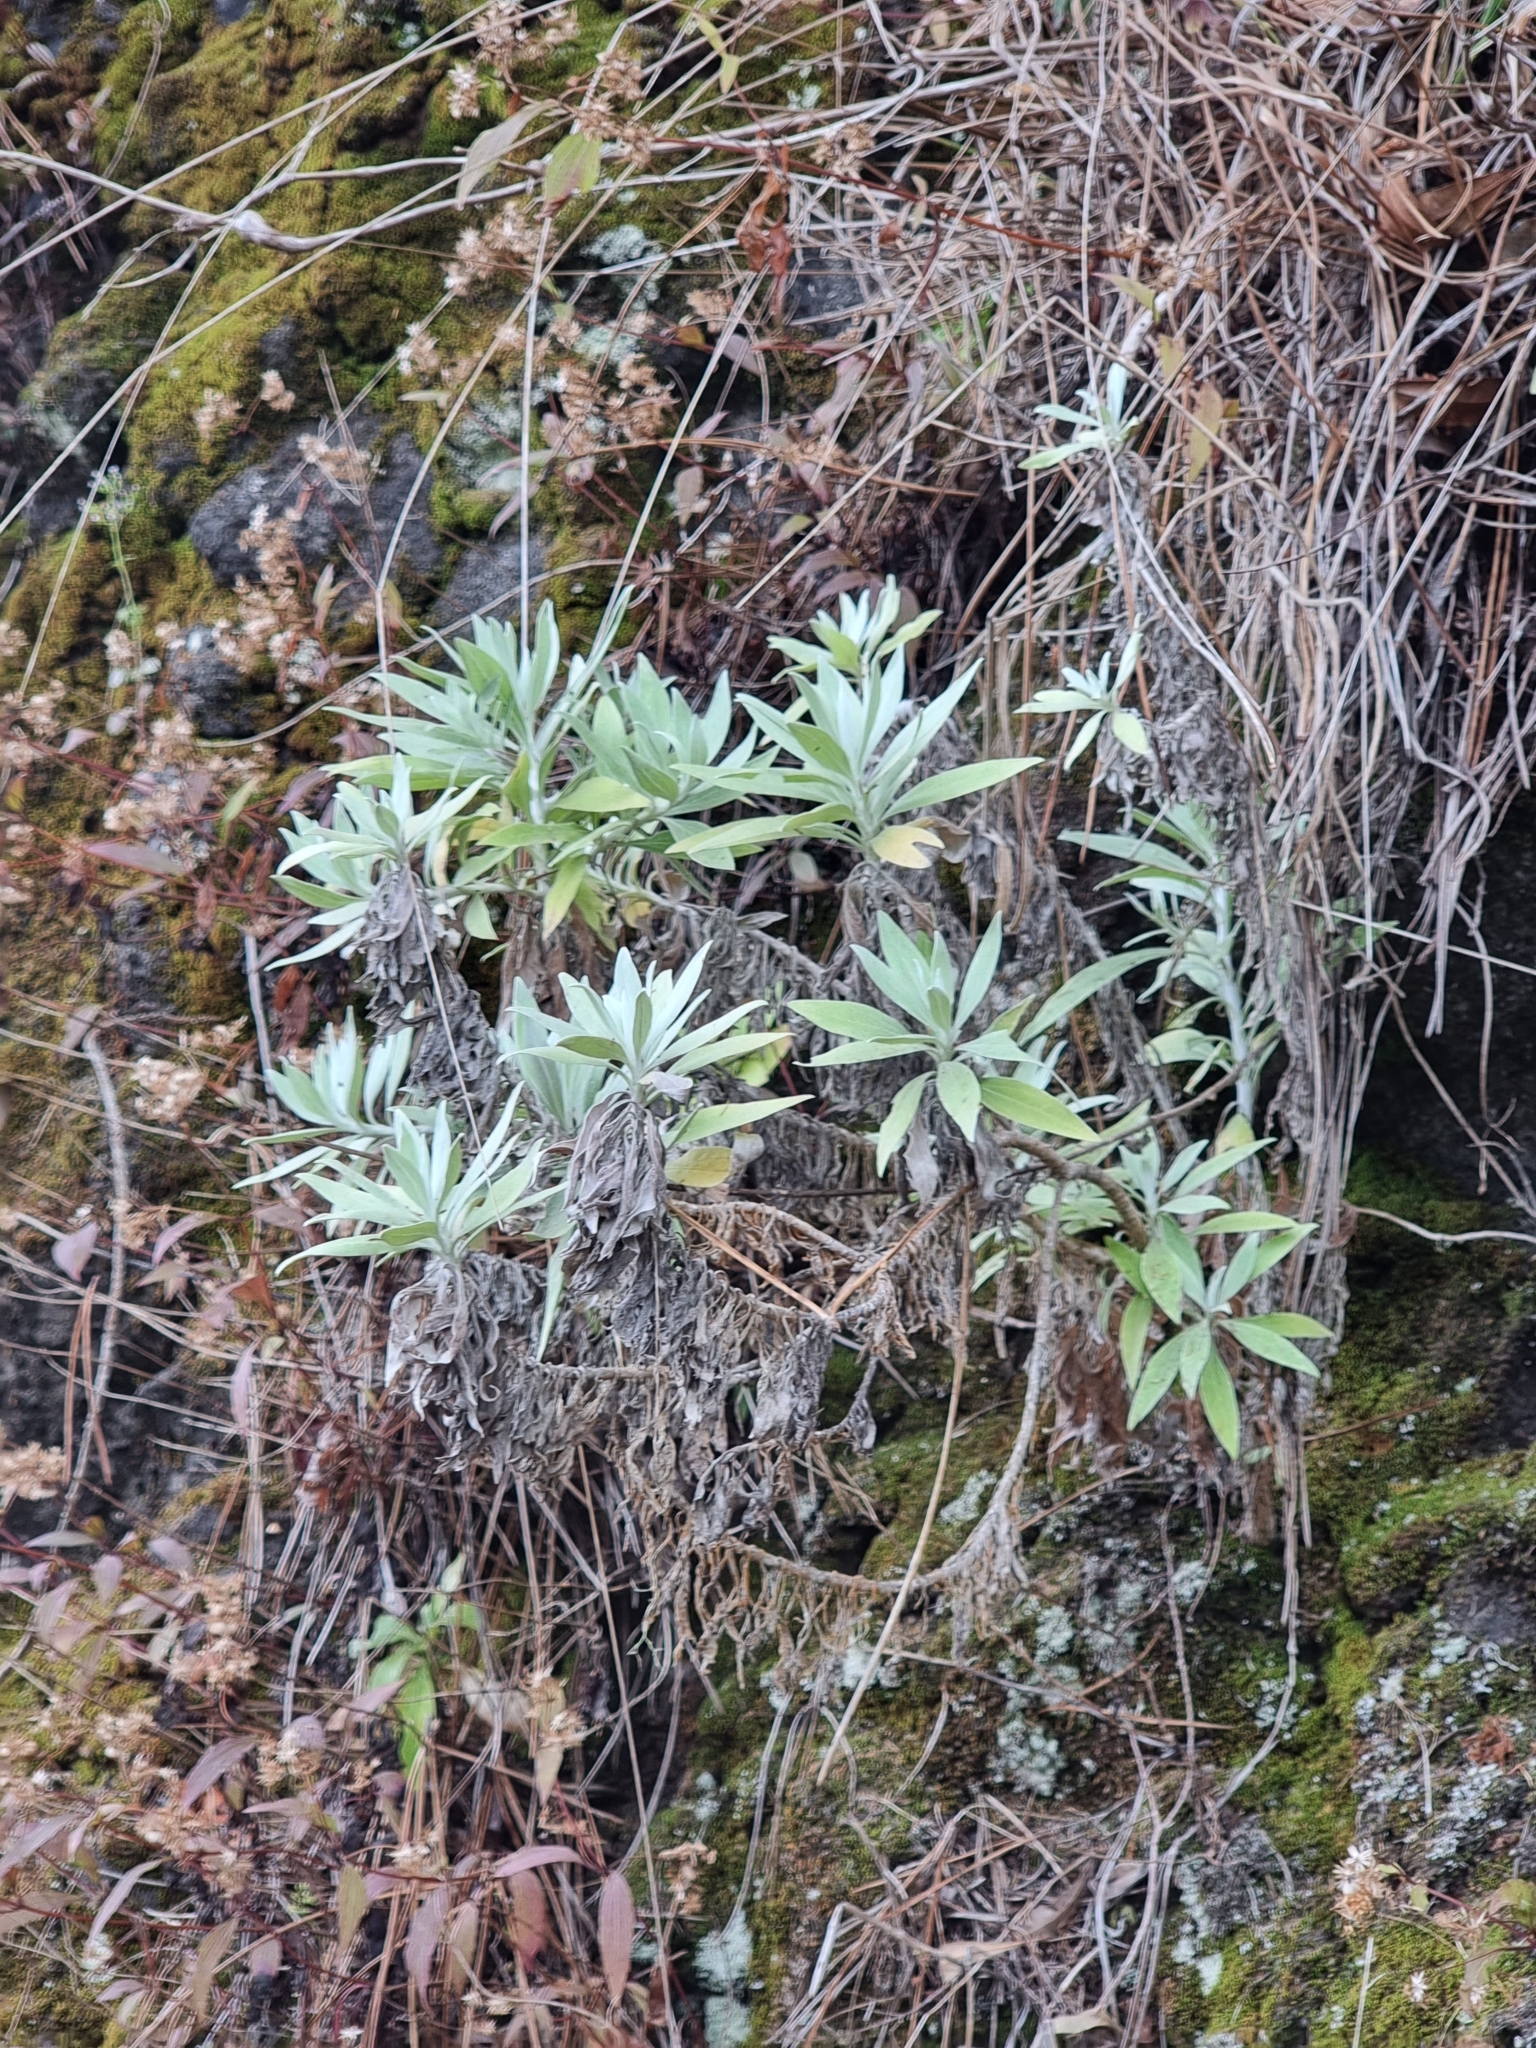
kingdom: Plantae
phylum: Tracheophyta
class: Magnoliopsida
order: Asterales
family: Asteraceae
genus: Helichrysum
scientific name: Helichrysum melaleucum
